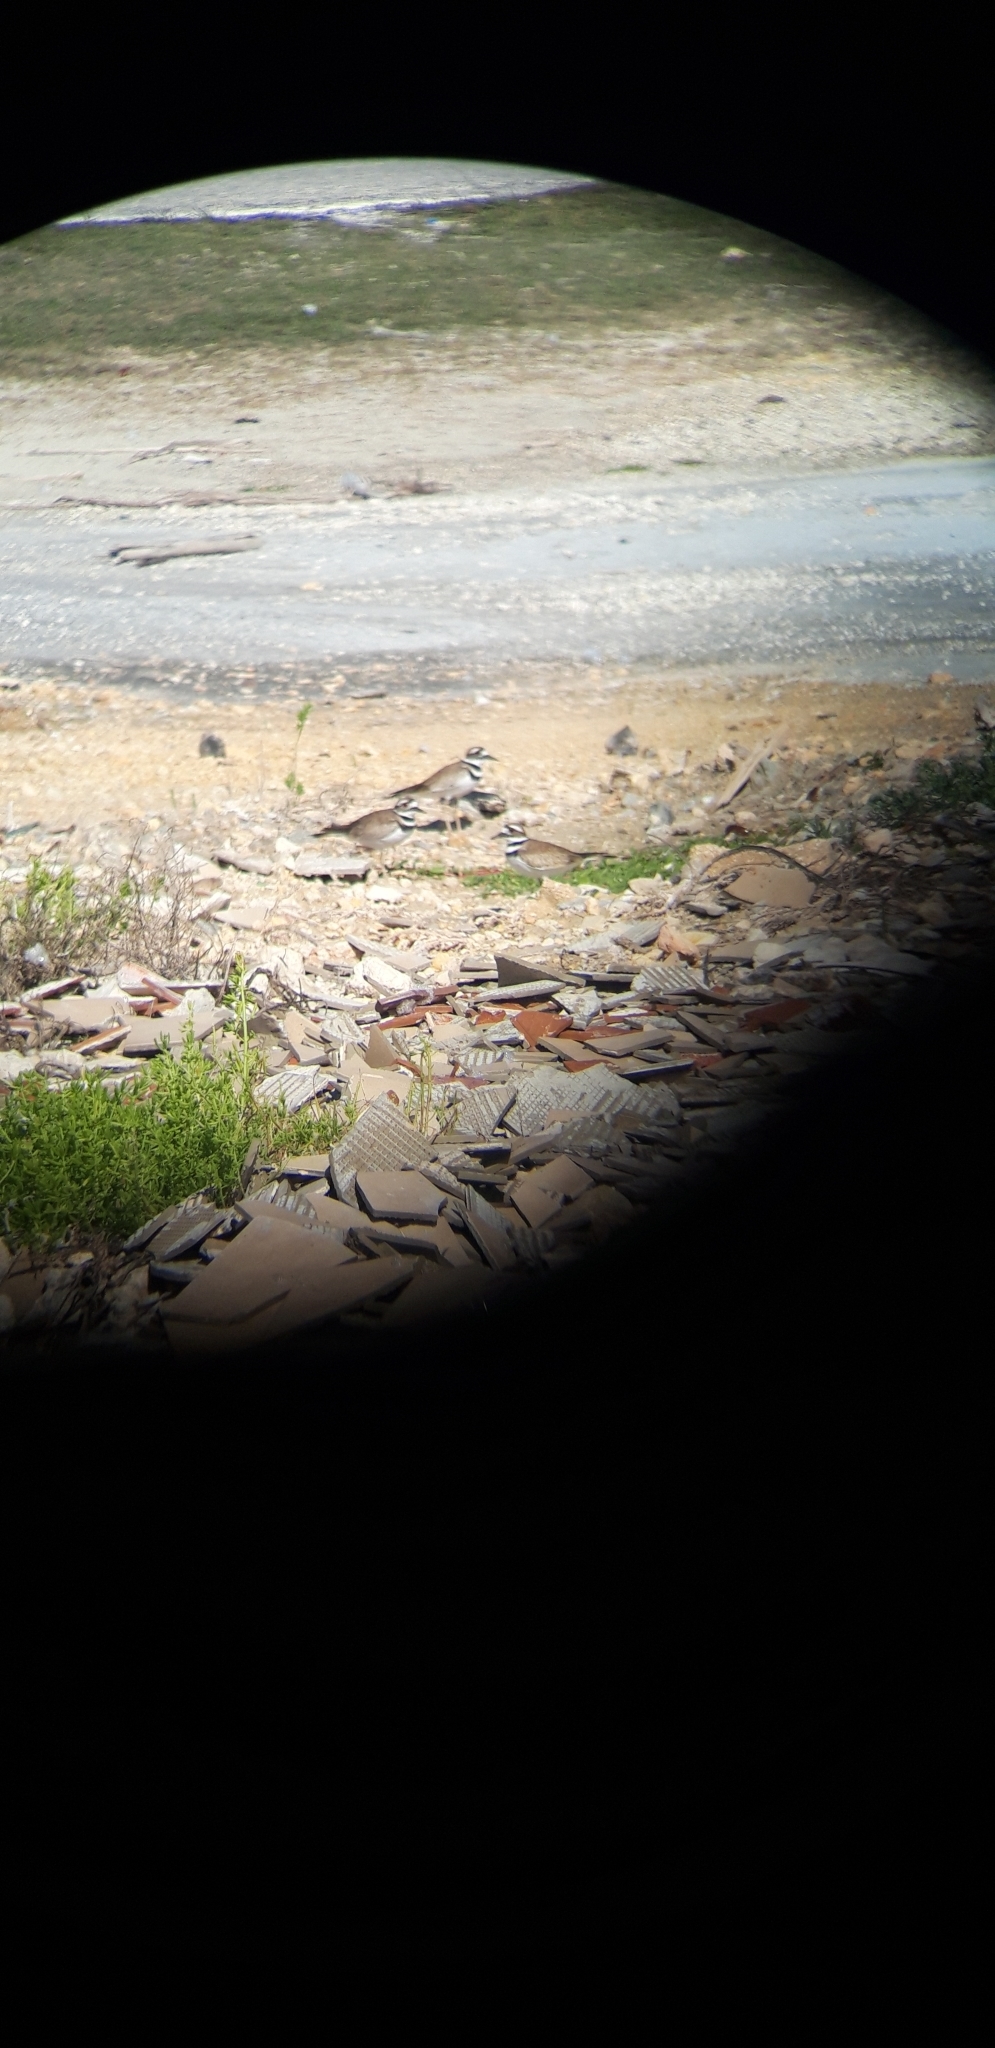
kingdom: Animalia
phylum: Chordata
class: Aves
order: Charadriiformes
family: Charadriidae
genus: Charadrius
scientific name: Charadrius vociferus
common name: Killdeer
